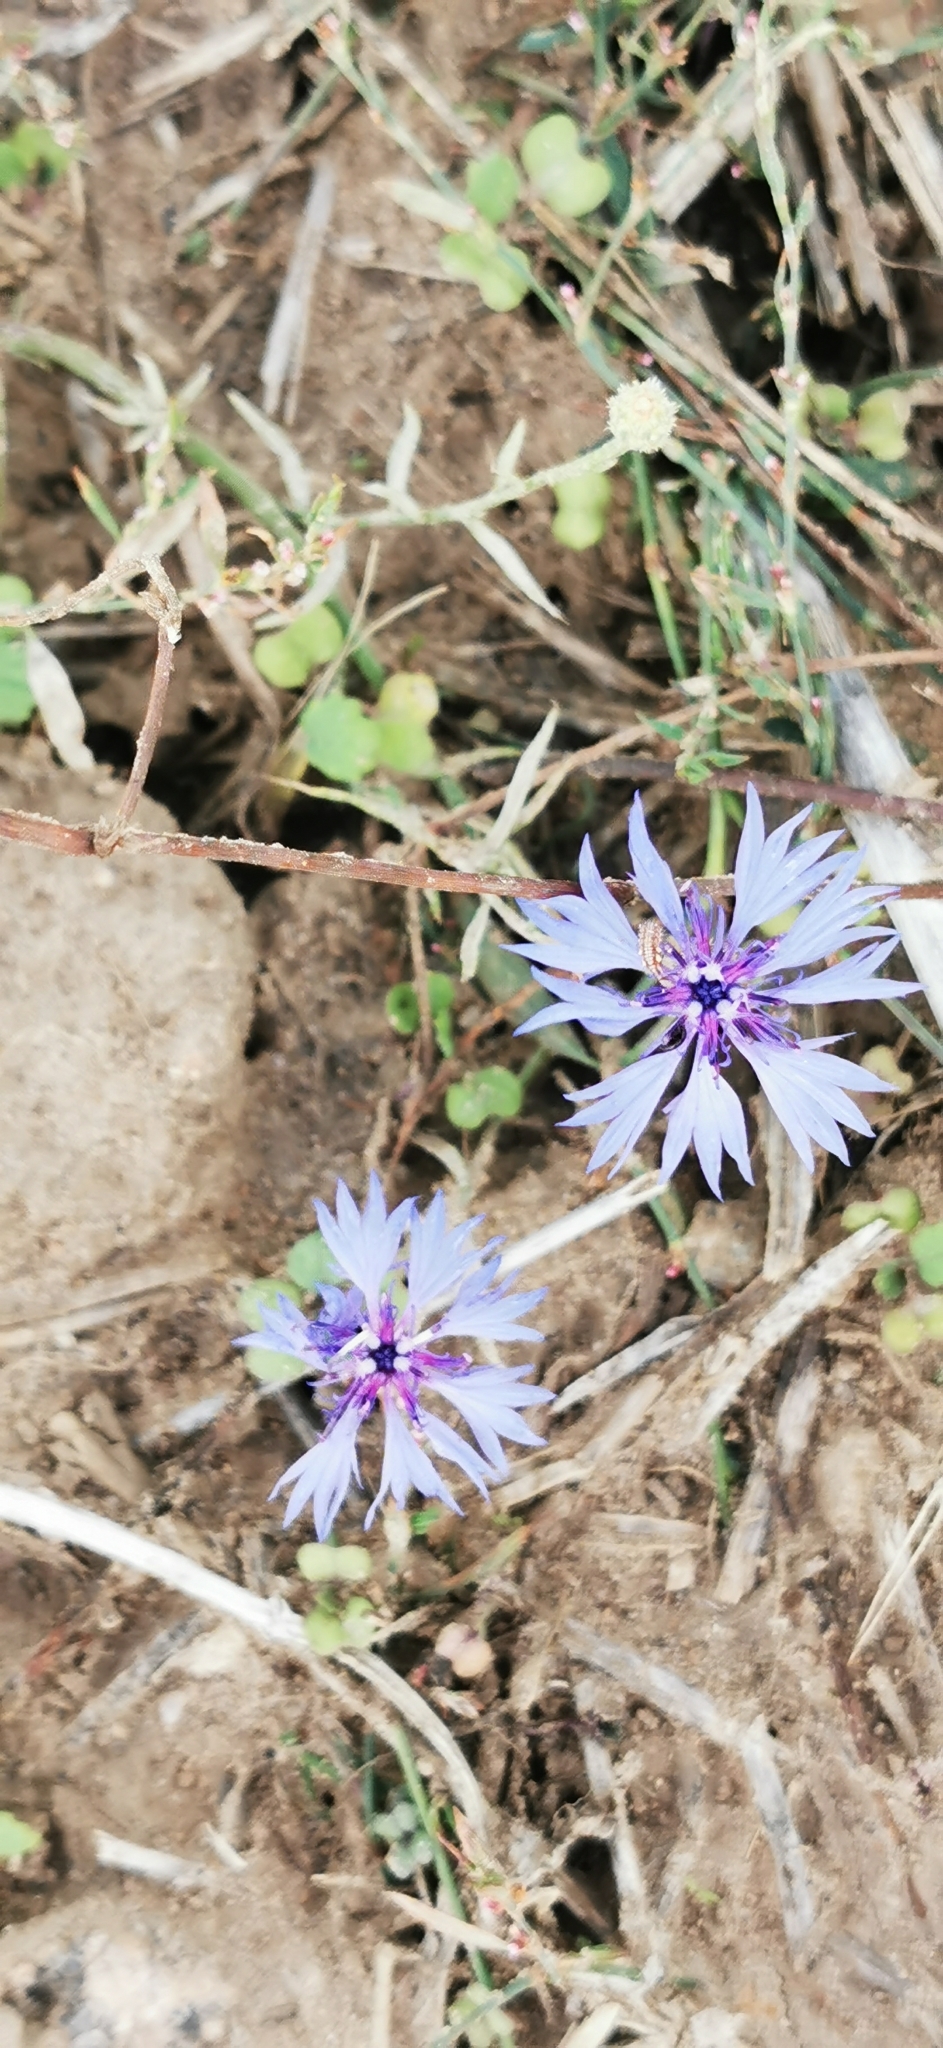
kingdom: Plantae
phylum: Tracheophyta
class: Magnoliopsida
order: Asterales
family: Asteraceae
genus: Centaurea
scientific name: Centaurea cyanus
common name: Cornflower
